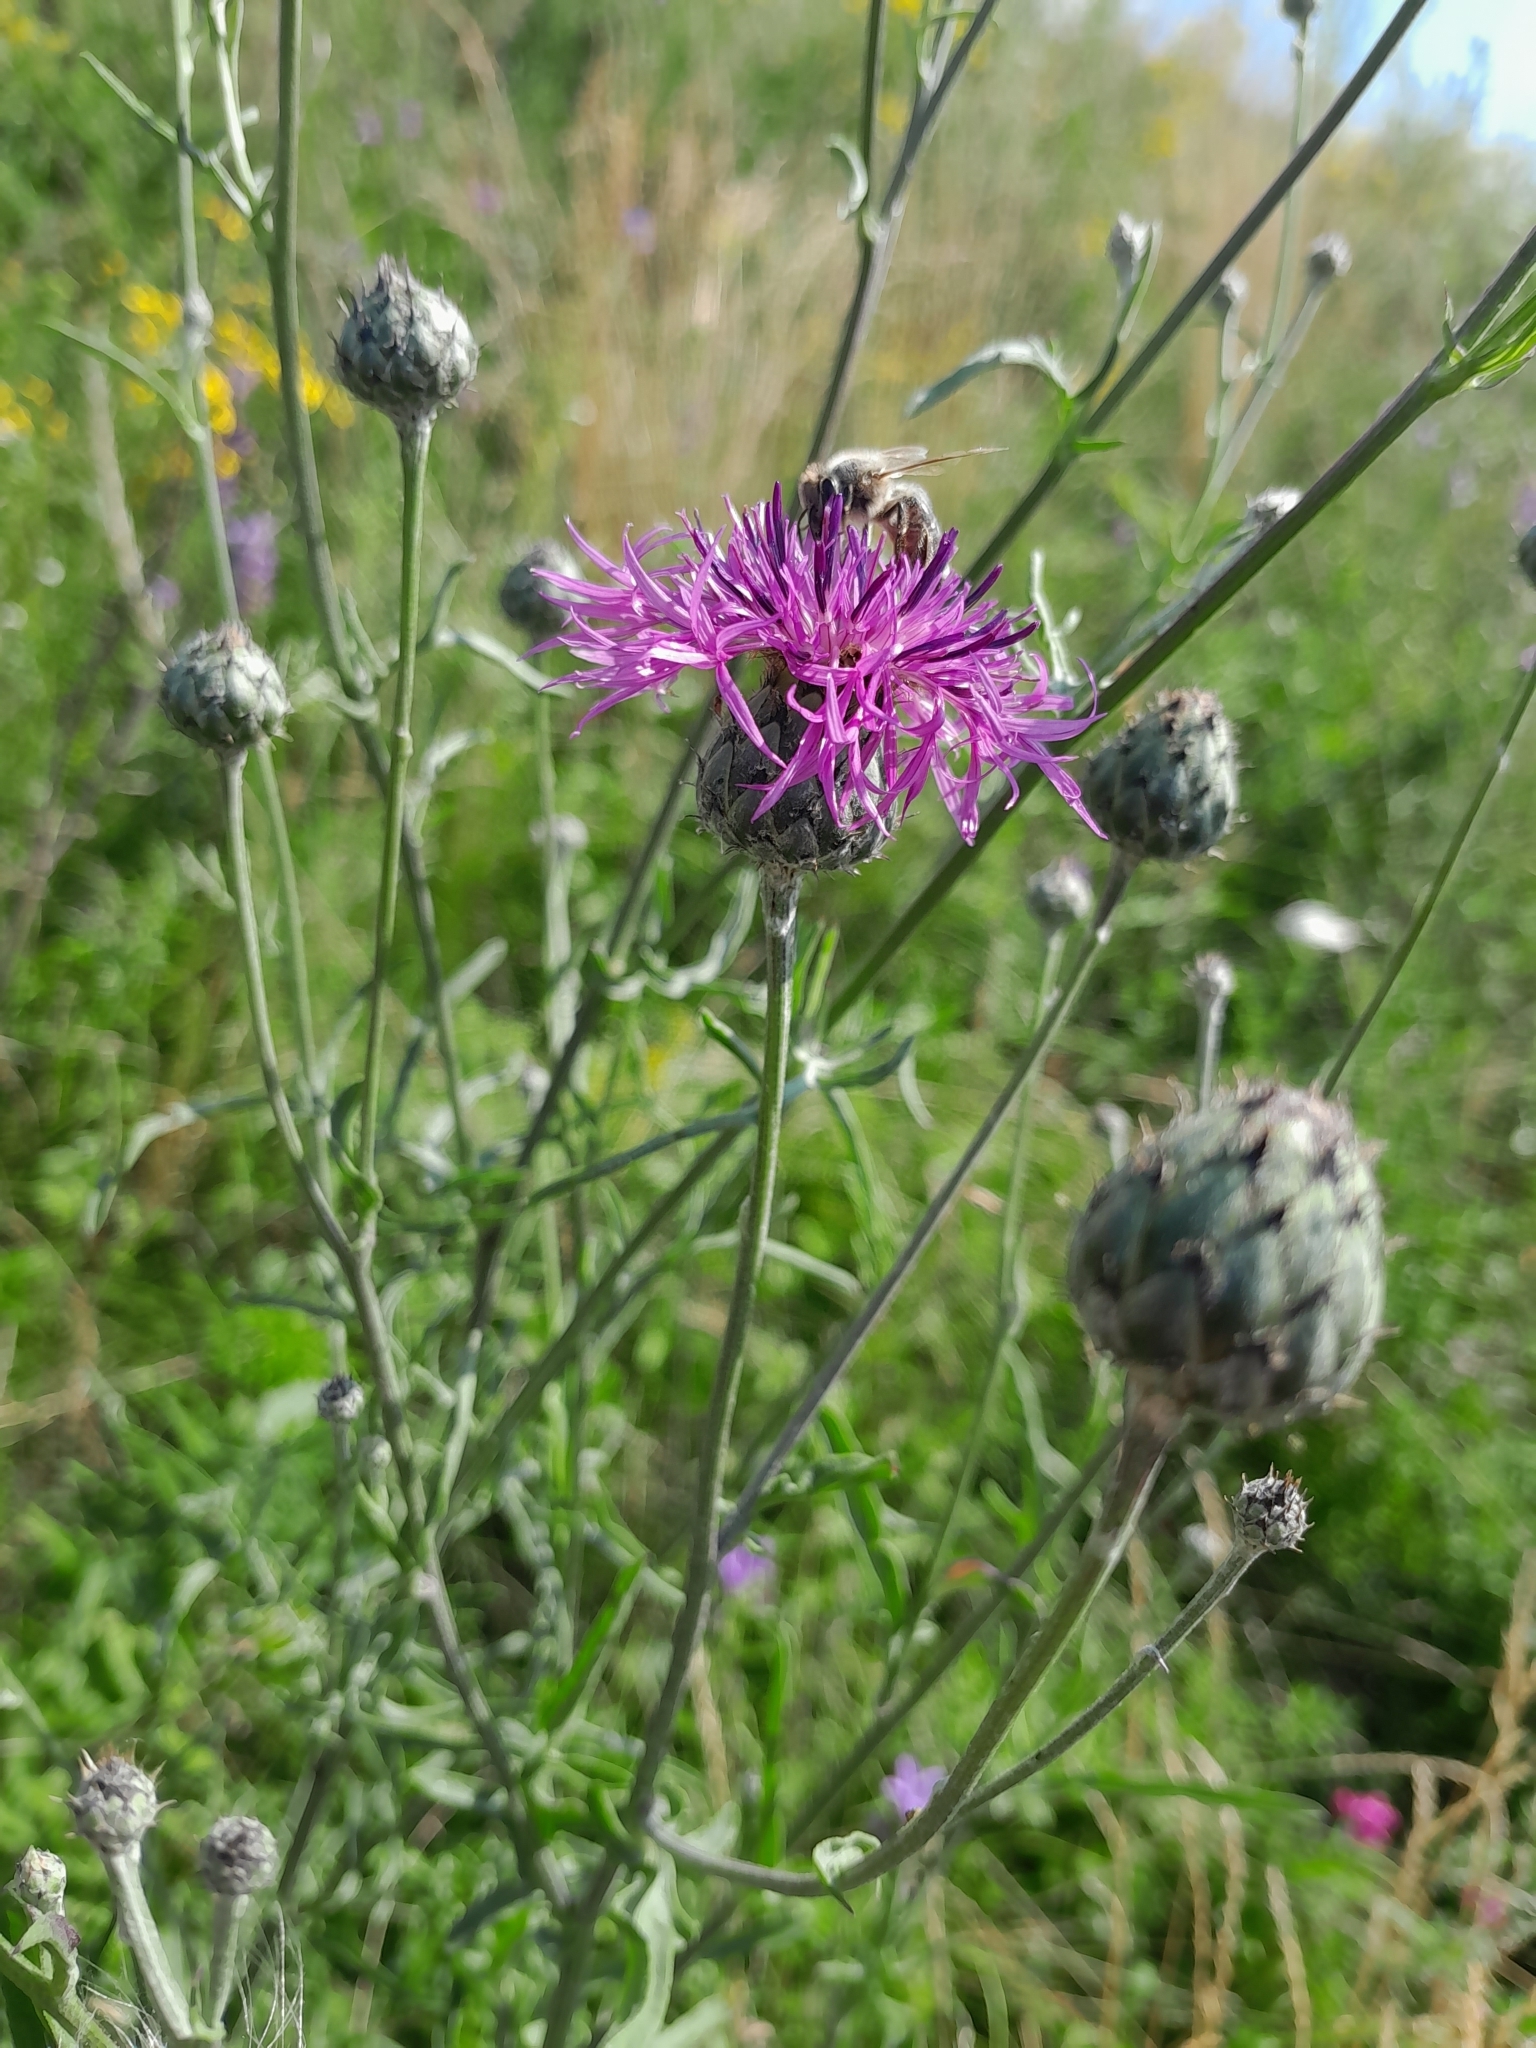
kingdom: Plantae
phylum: Tracheophyta
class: Magnoliopsida
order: Asterales
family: Asteraceae
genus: Centaurea
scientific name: Centaurea apiculata
